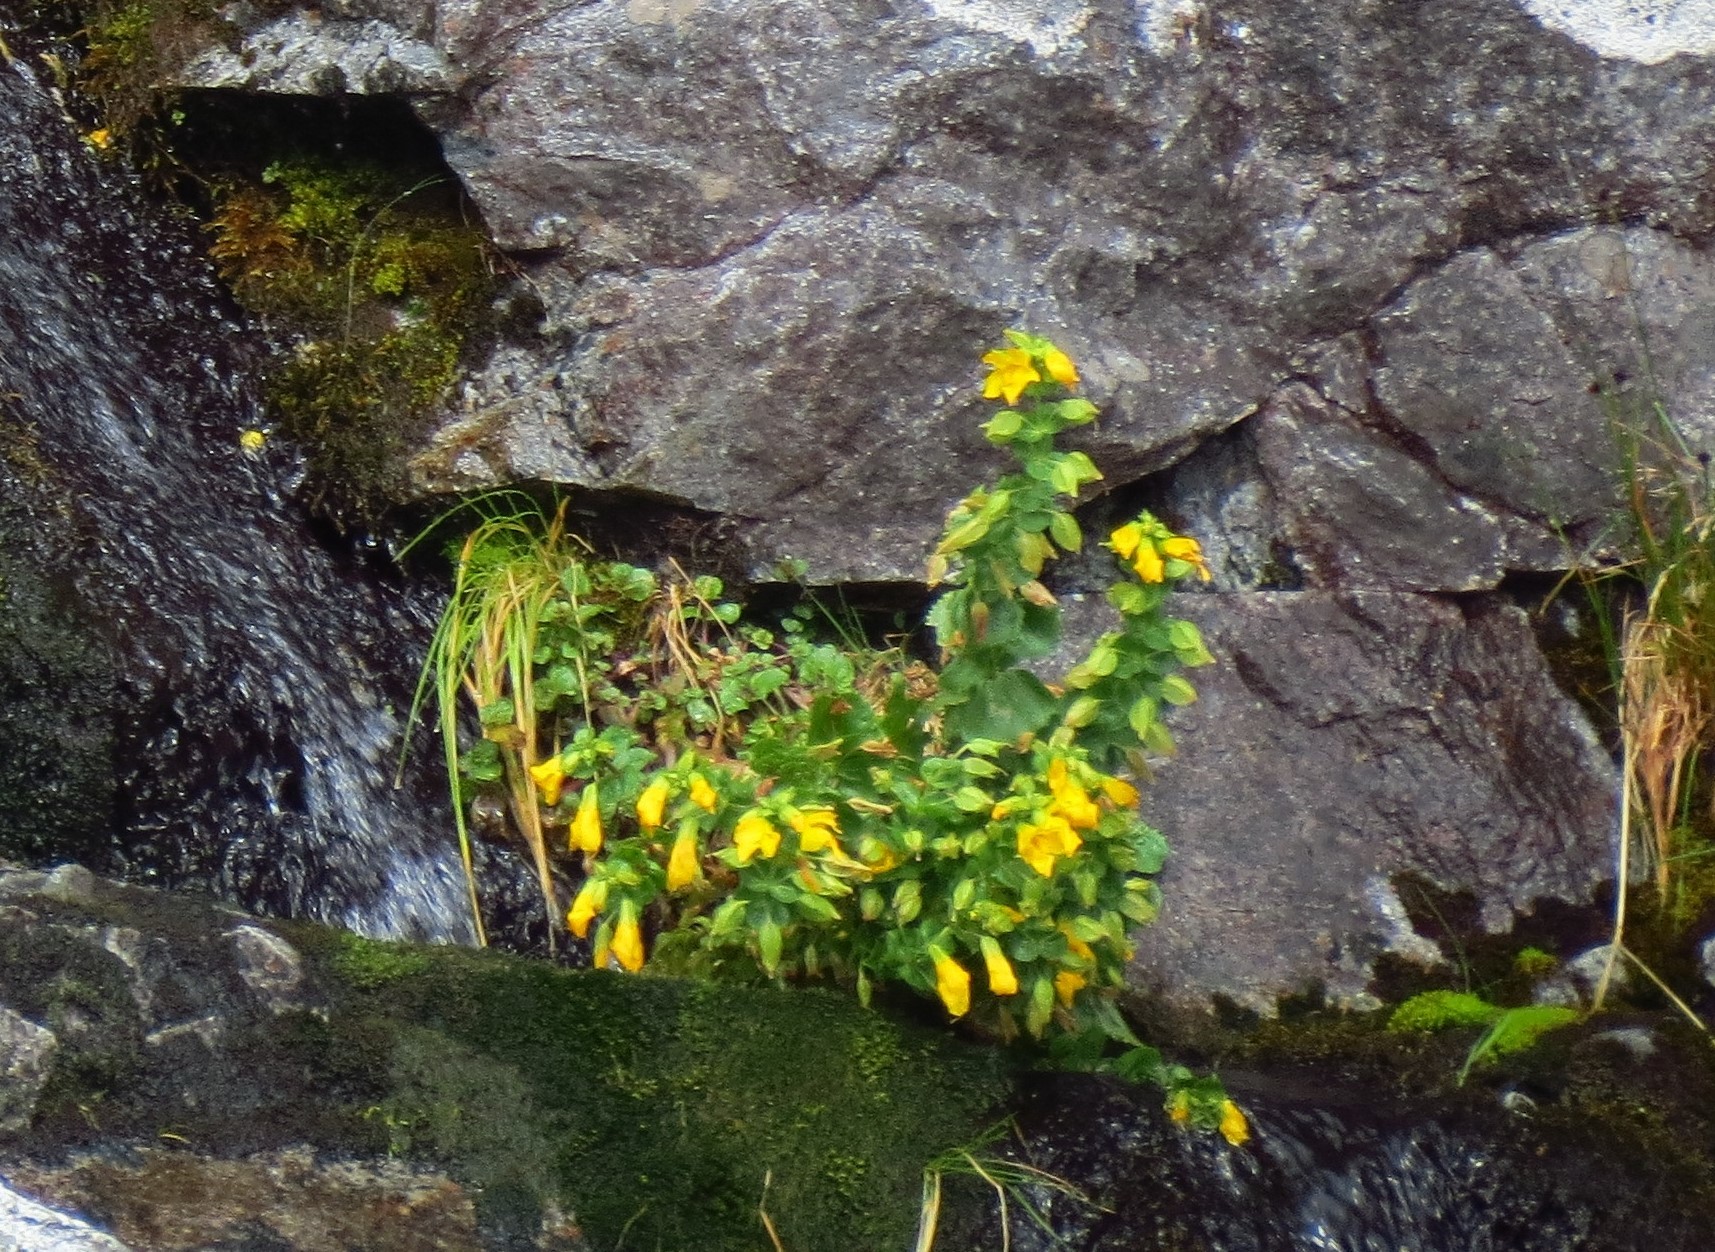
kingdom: Plantae
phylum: Tracheophyta
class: Magnoliopsida
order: Lamiales
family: Phrymaceae
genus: Erythranthe
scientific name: Erythranthe guttata
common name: Monkeyflower
